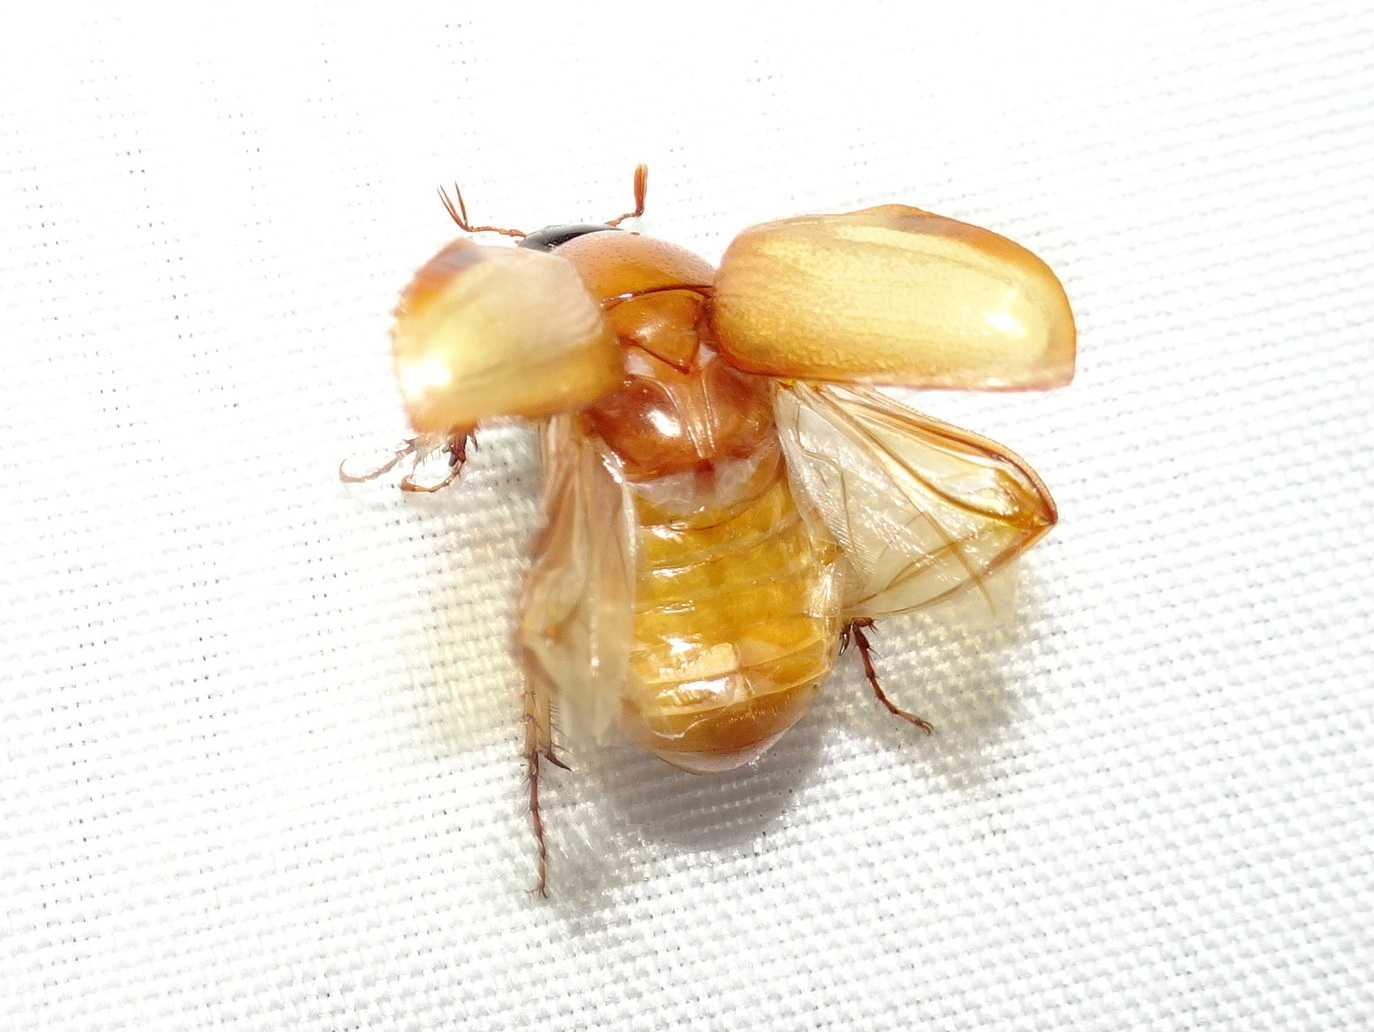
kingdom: Animalia
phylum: Arthropoda
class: Insecta
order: Coleoptera
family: Scarabaeidae
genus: Cyclocephala
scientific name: Cyclocephala lurida
